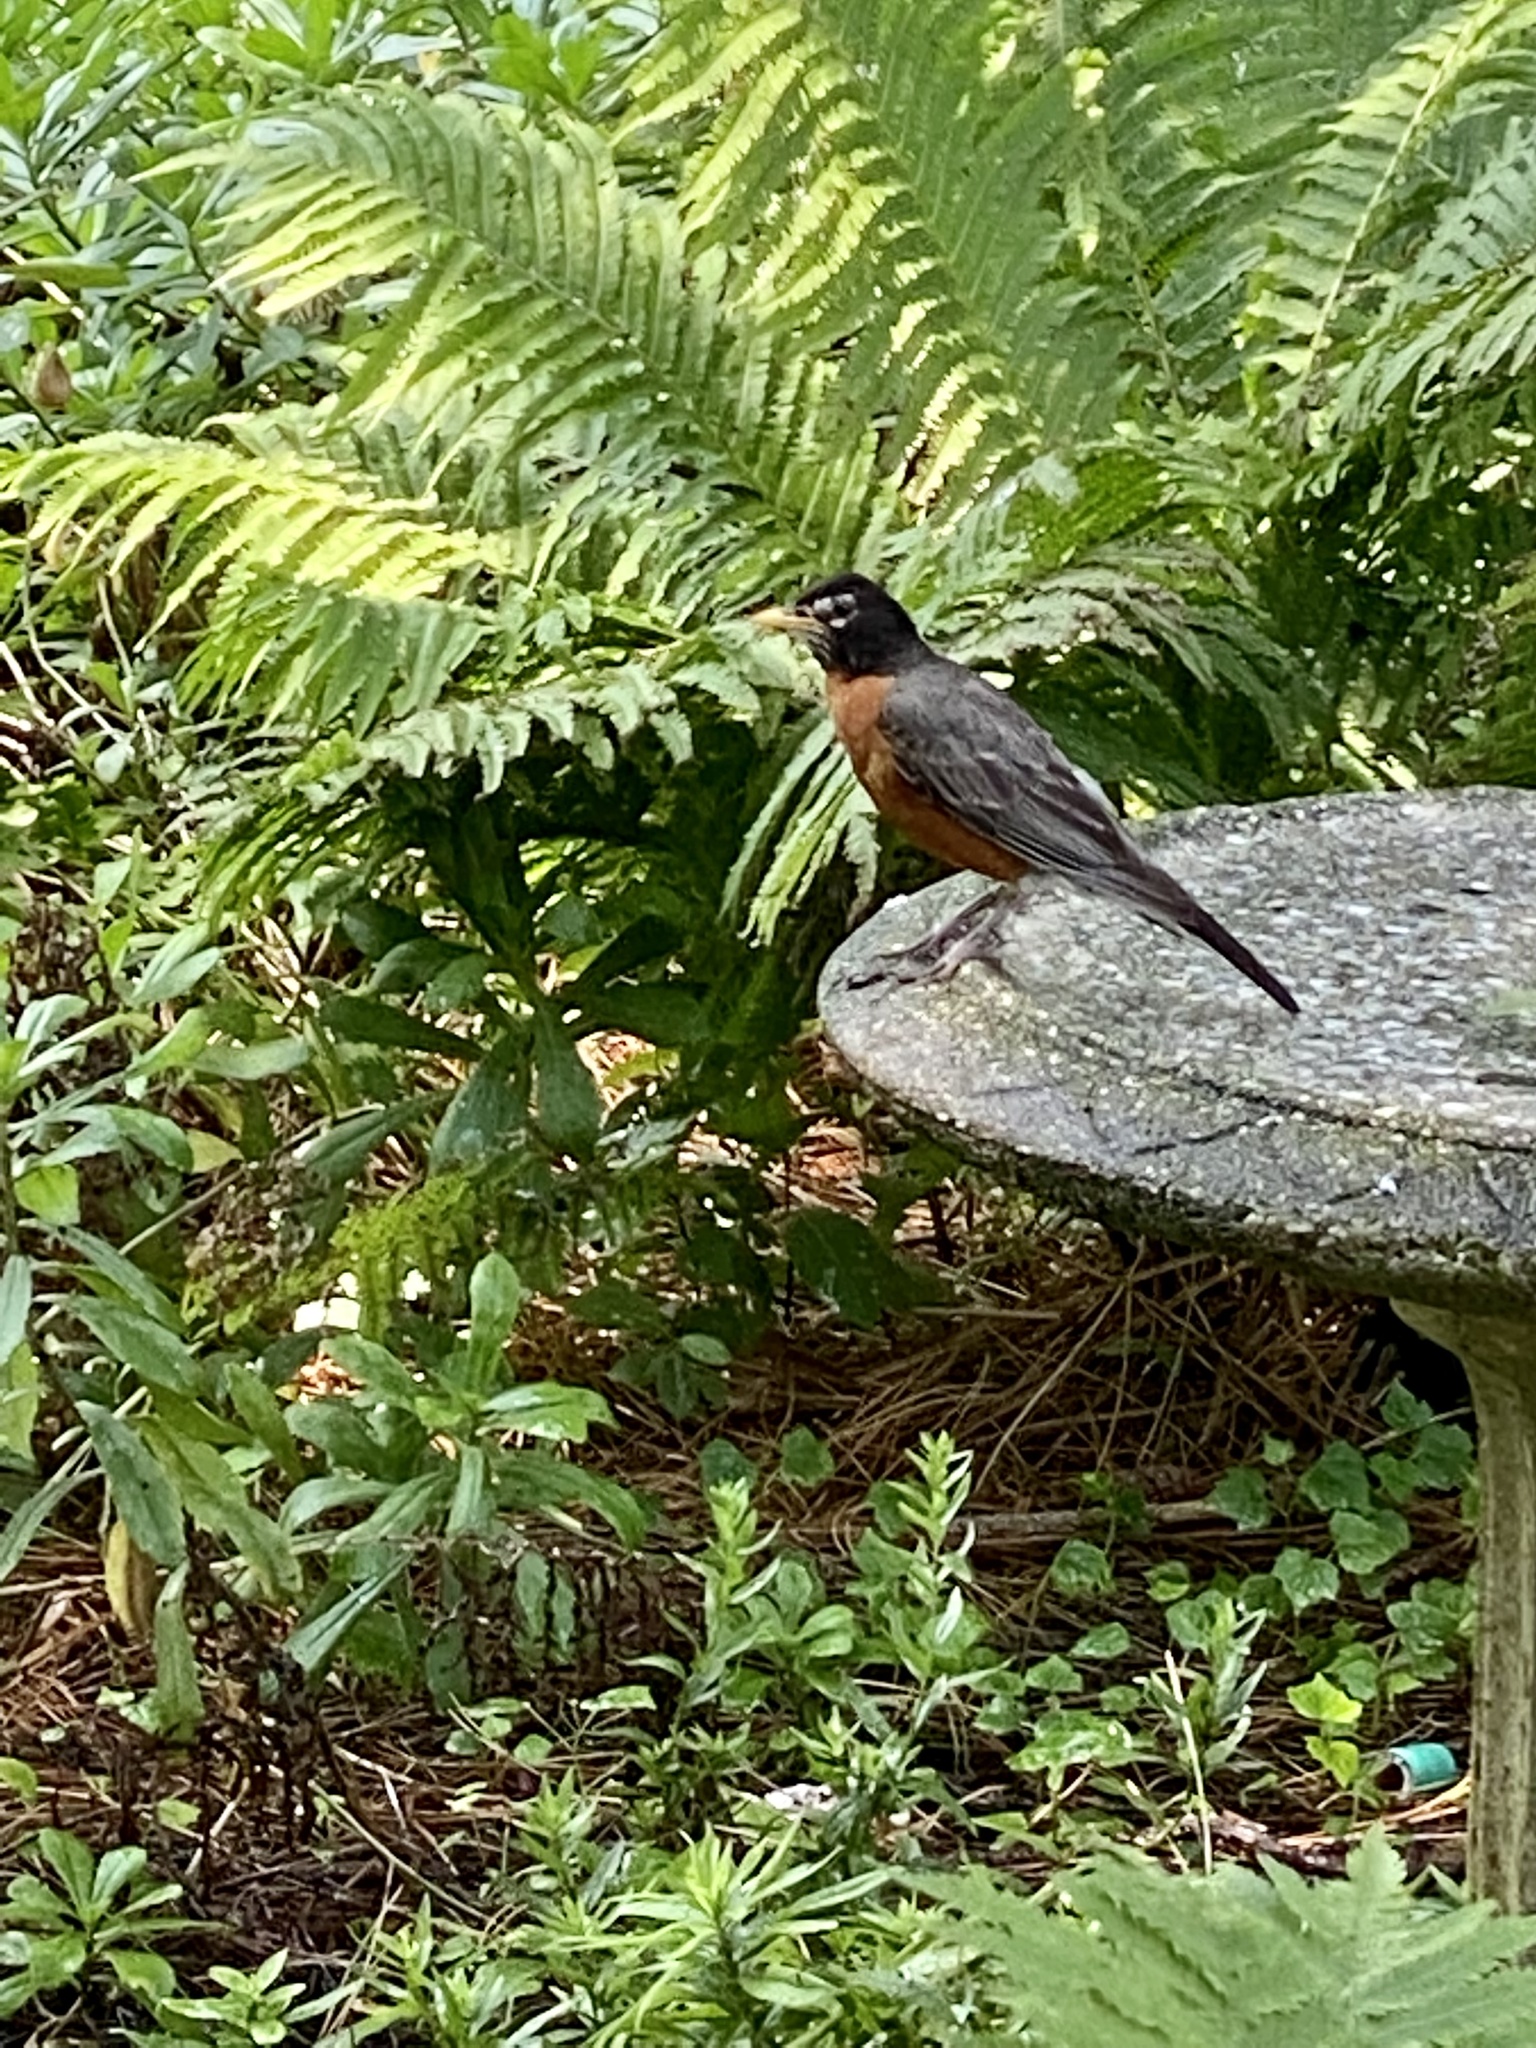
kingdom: Animalia
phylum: Chordata
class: Aves
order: Passeriformes
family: Turdidae
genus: Turdus
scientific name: Turdus migratorius
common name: American robin
